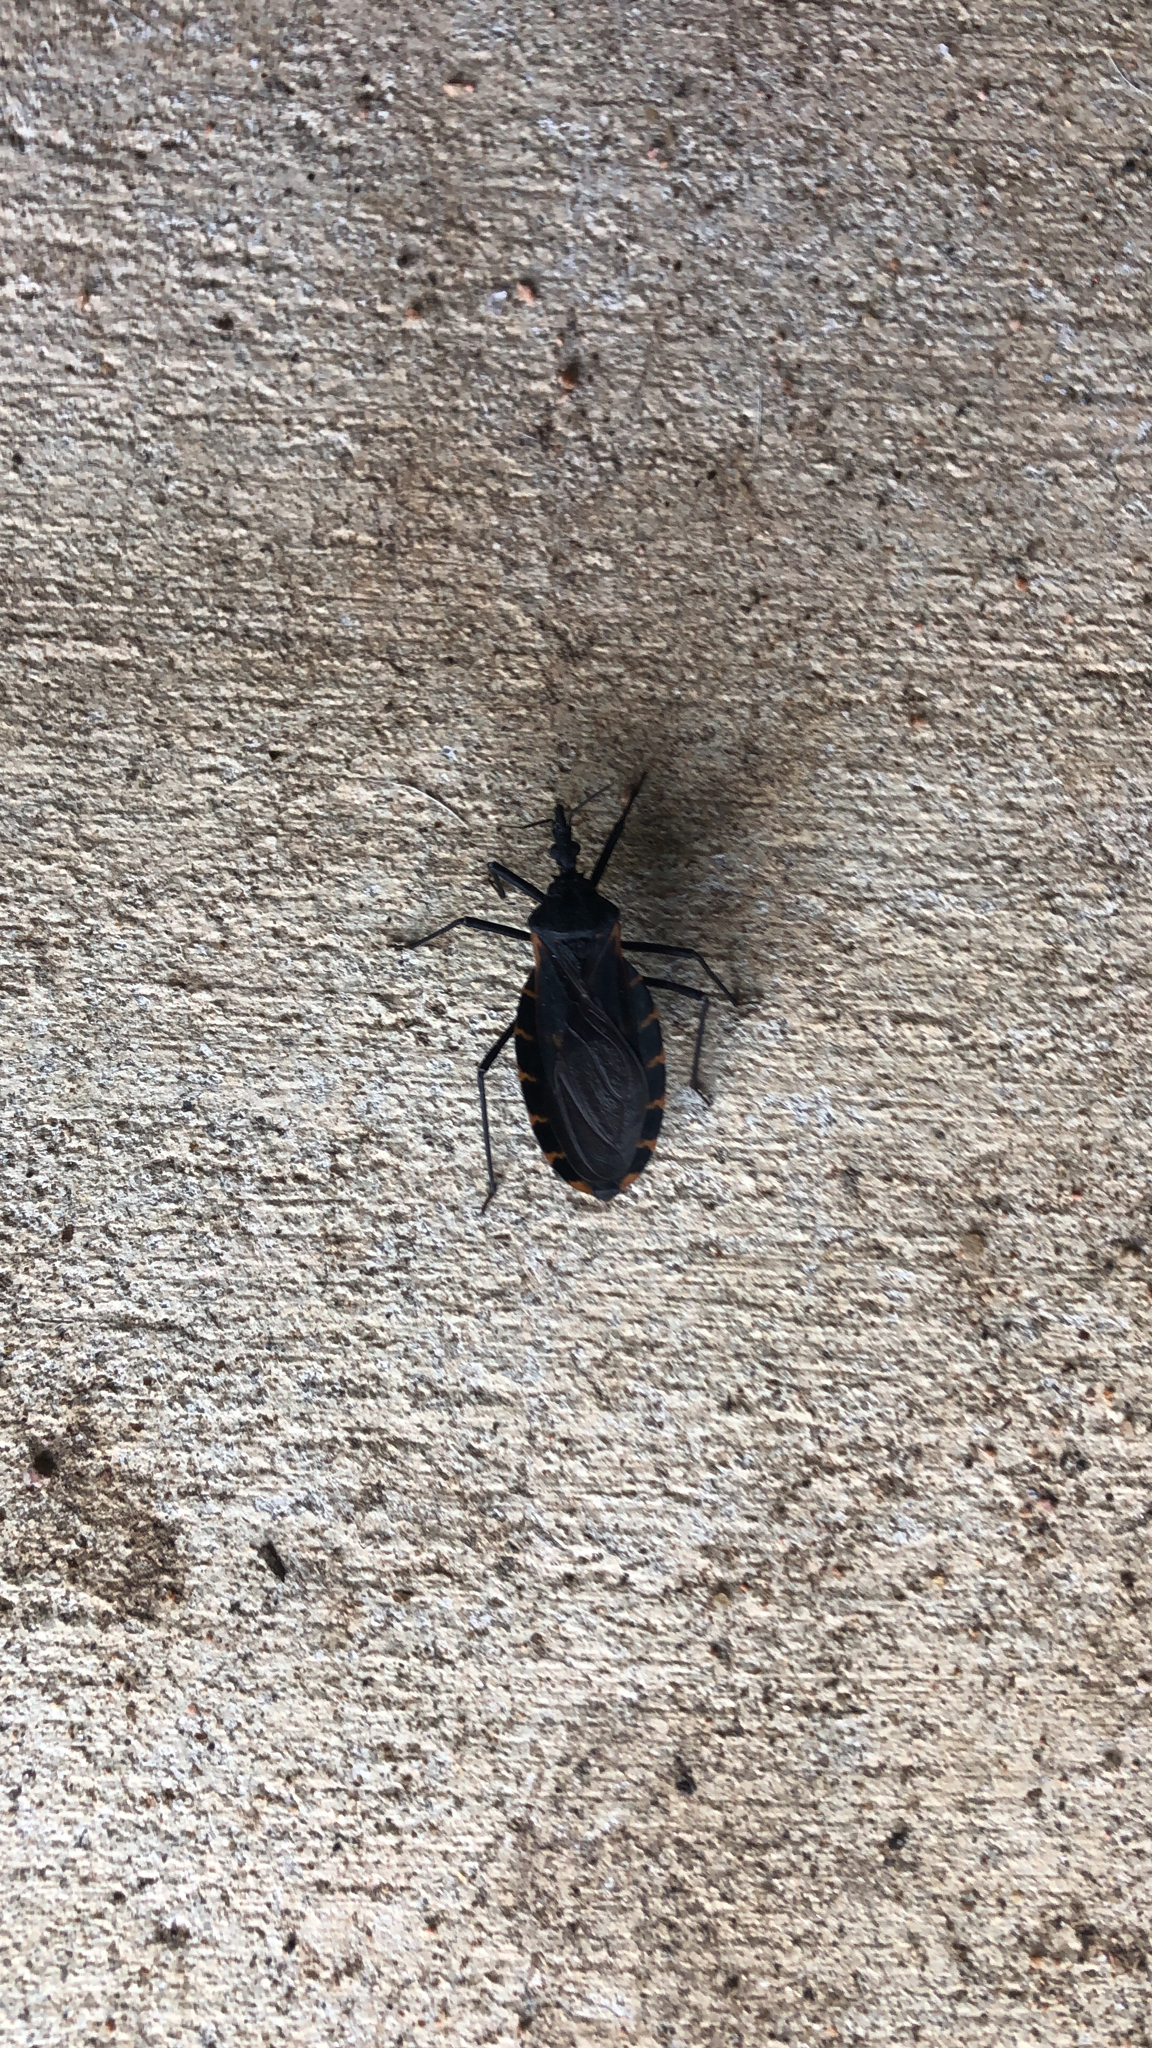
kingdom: Animalia
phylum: Arthropoda
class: Insecta
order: Hemiptera
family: Reduviidae
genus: Triatoma
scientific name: Triatoma gerstaeckeri
